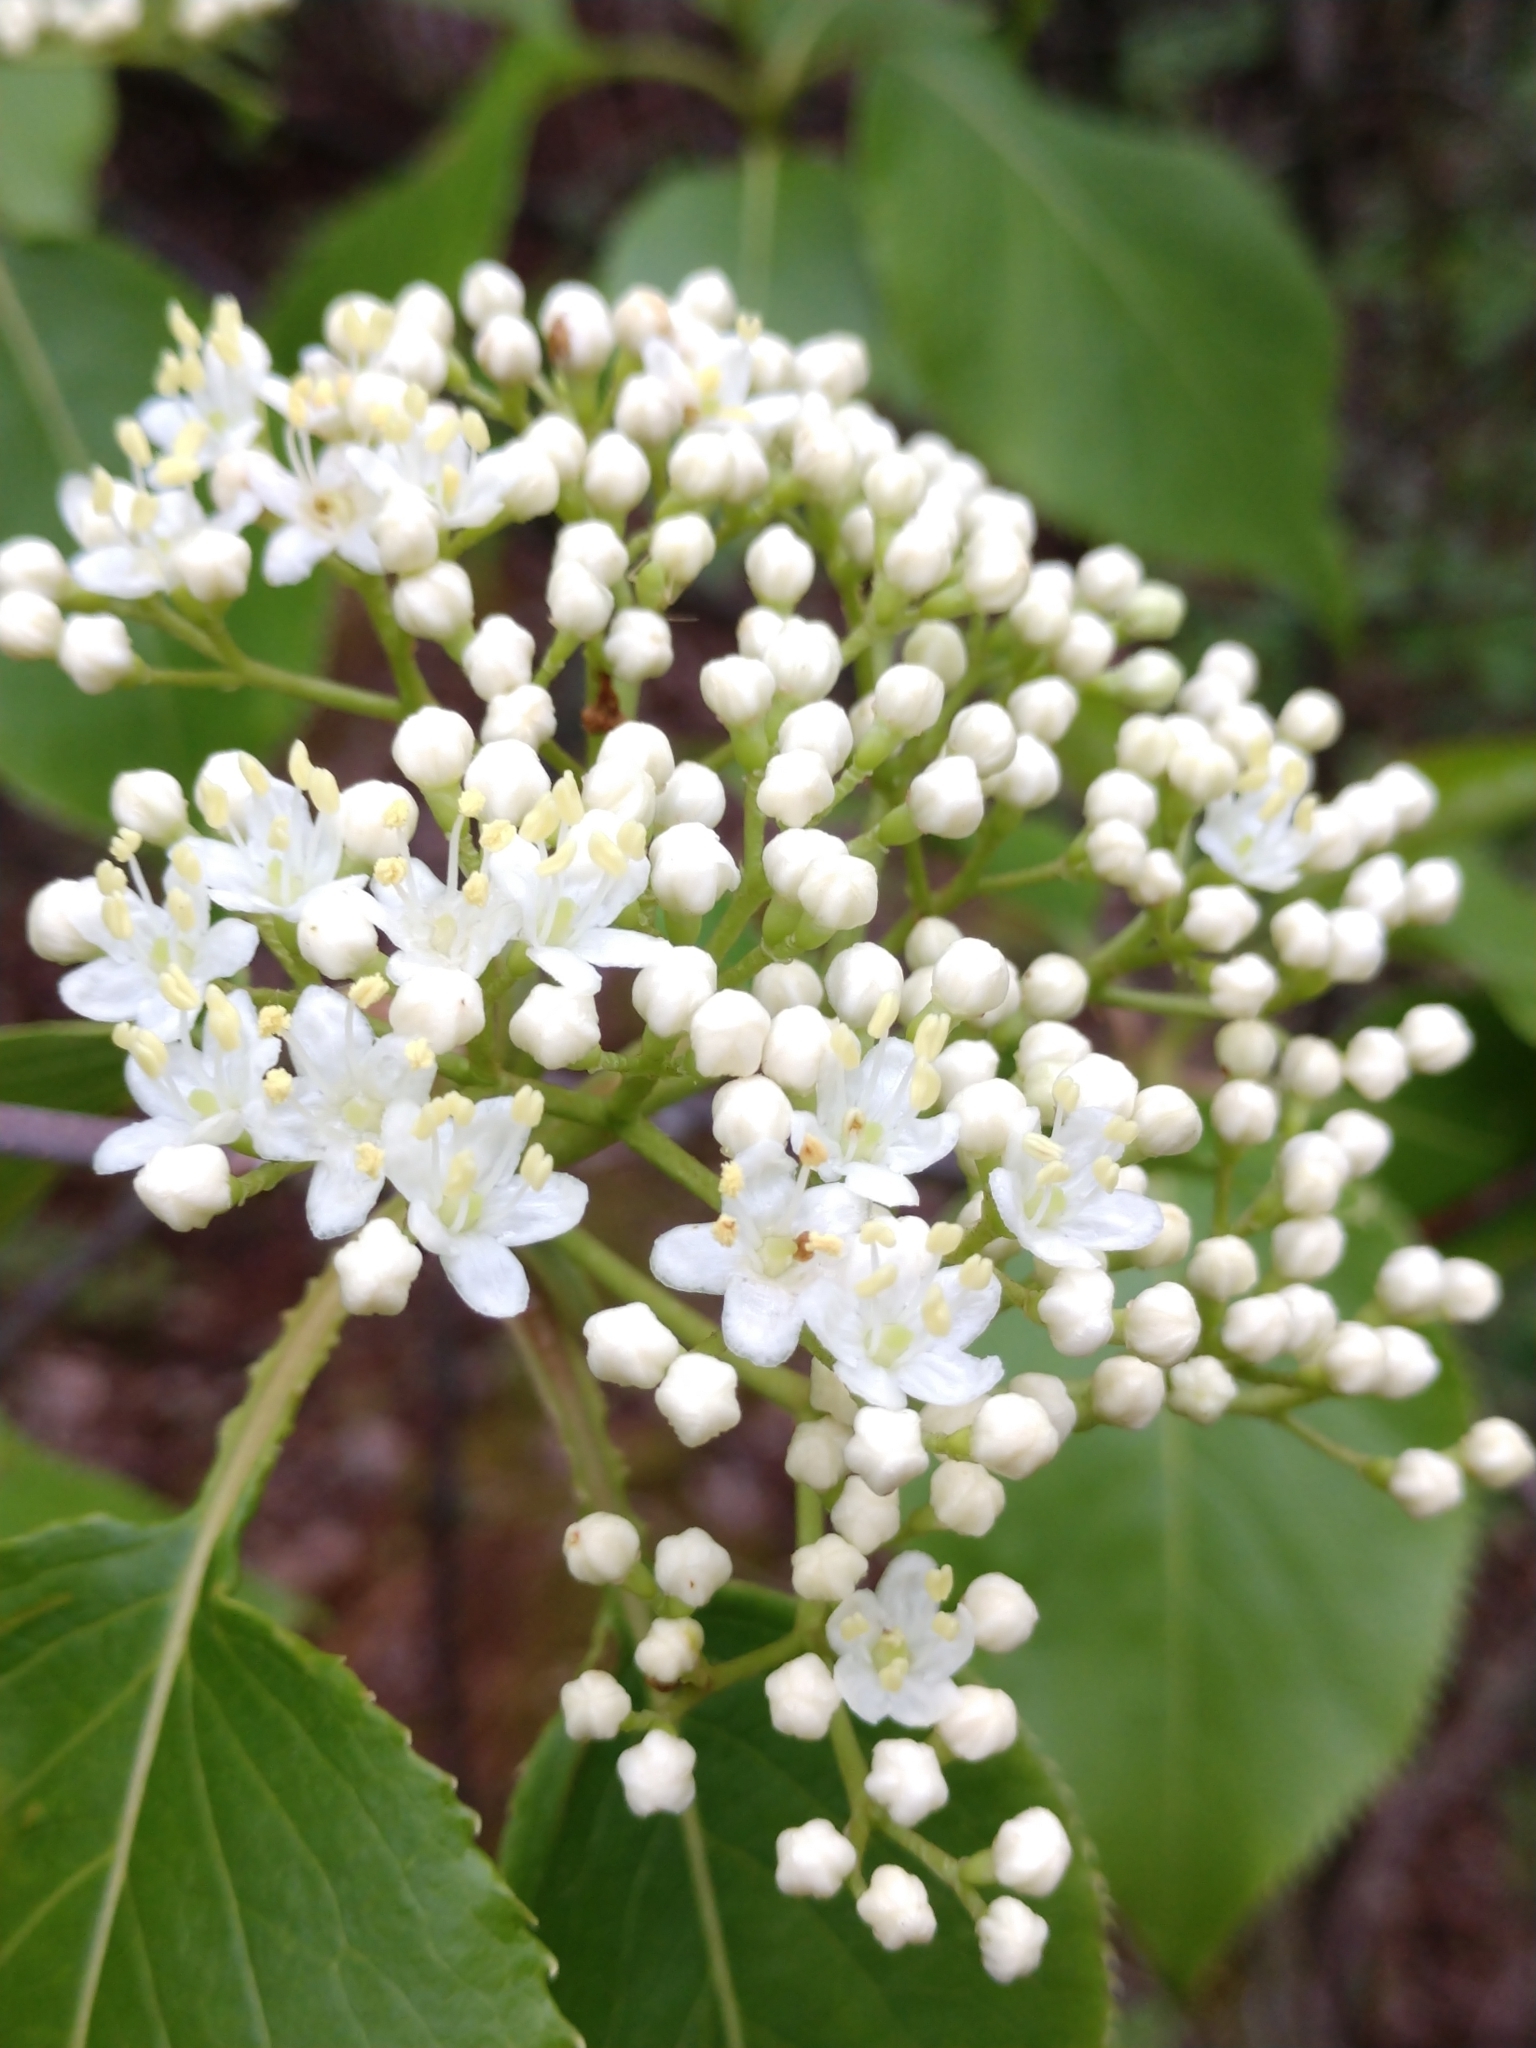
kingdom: Plantae
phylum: Tracheophyta
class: Magnoliopsida
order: Dipsacales
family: Viburnaceae
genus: Viburnum
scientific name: Viburnum lentago
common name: Black haw
